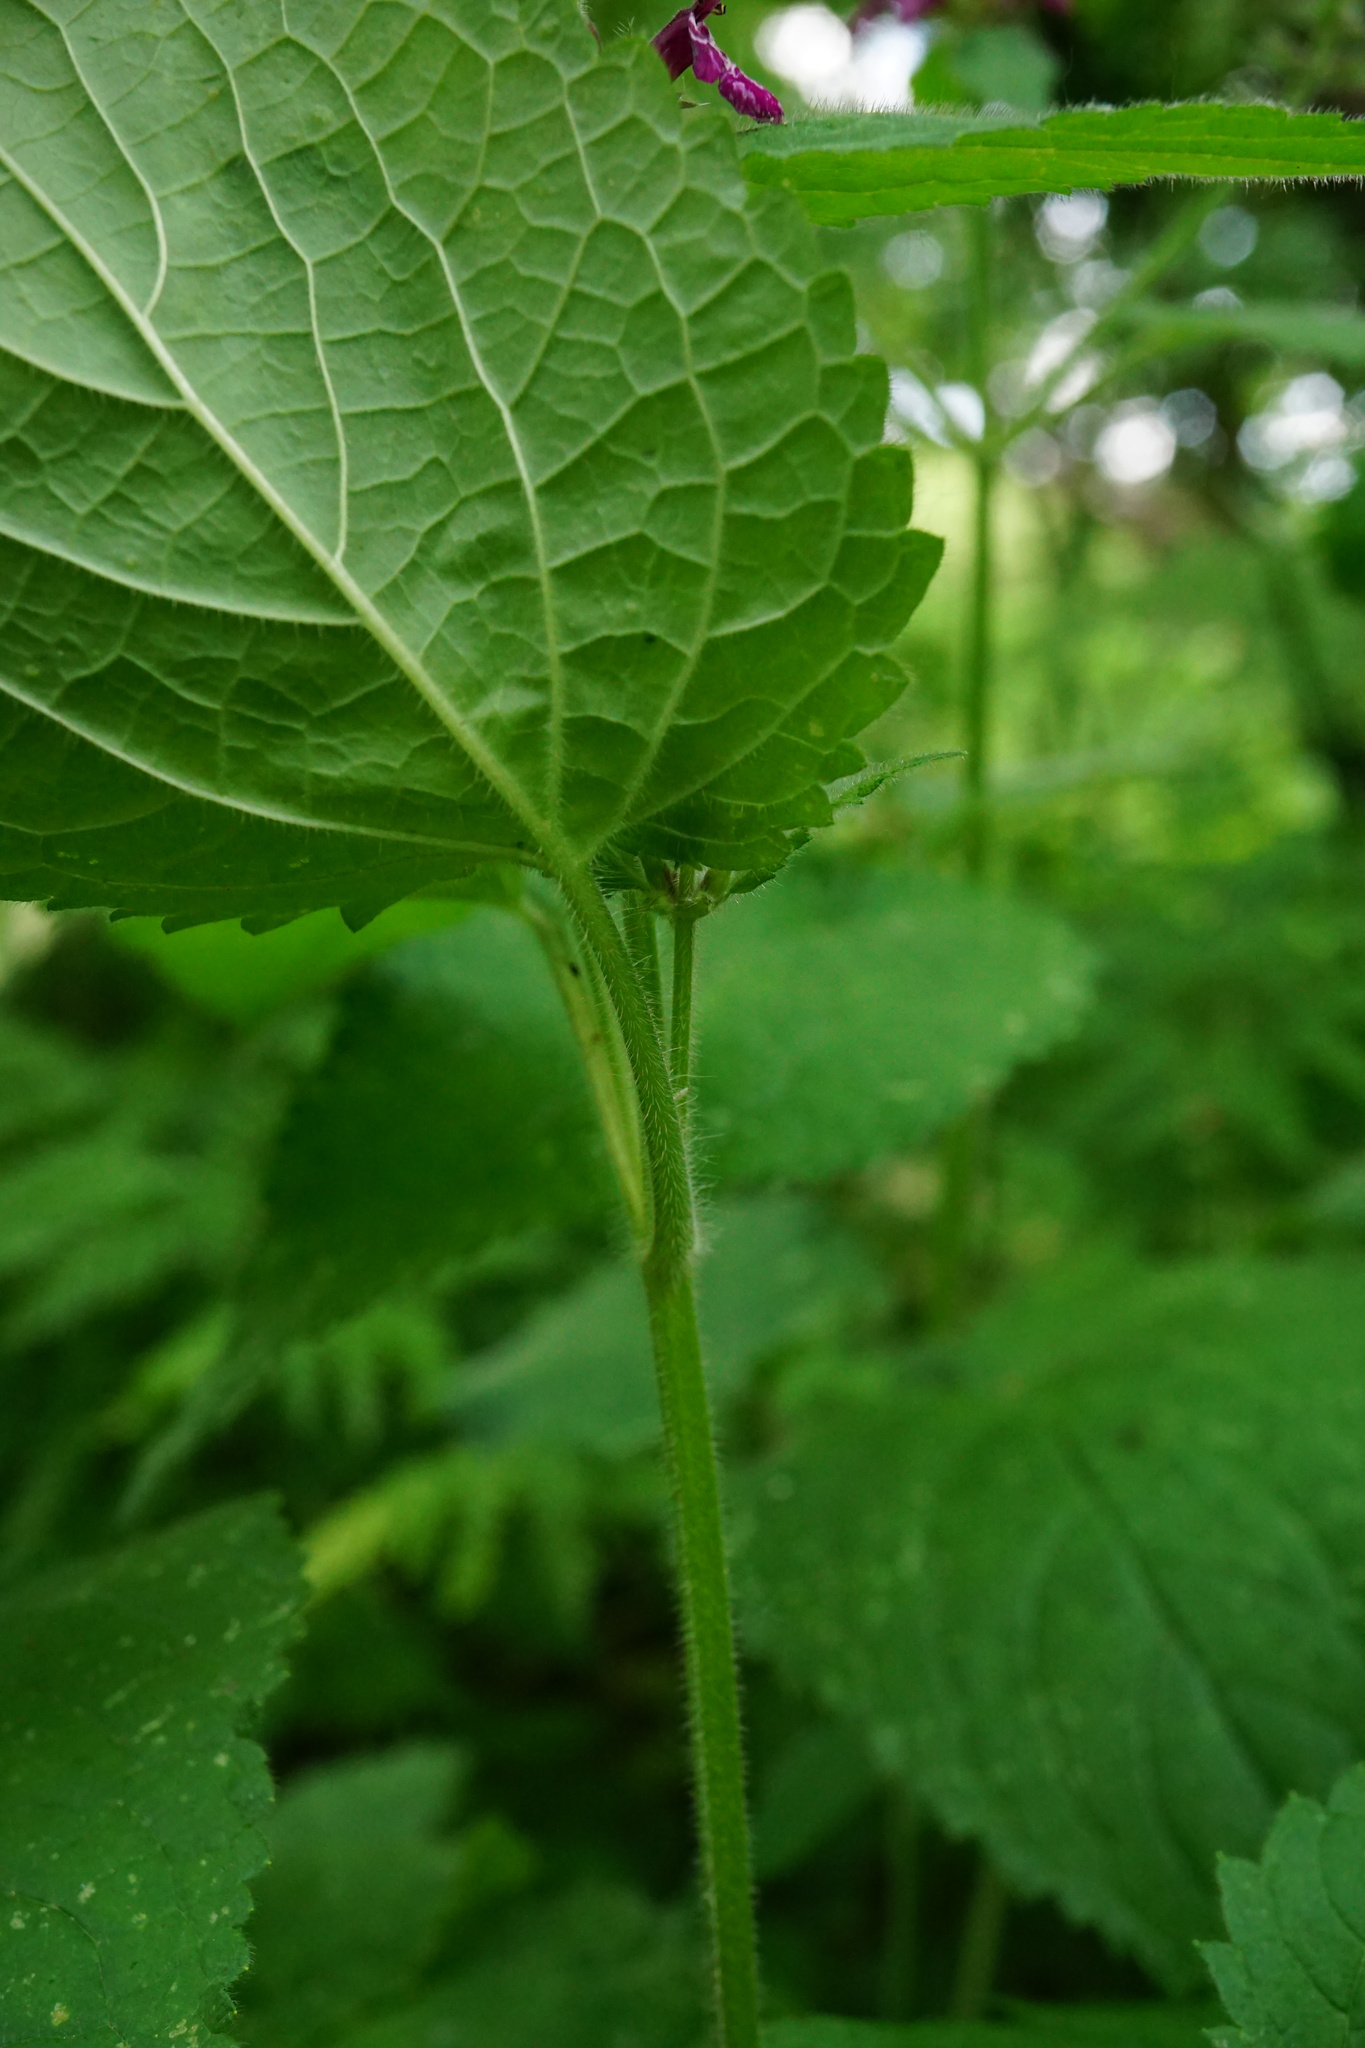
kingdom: Plantae
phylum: Tracheophyta
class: Magnoliopsida
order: Lamiales
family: Lamiaceae
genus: Stachys
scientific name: Stachys sylvatica
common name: Hedge woundwort
